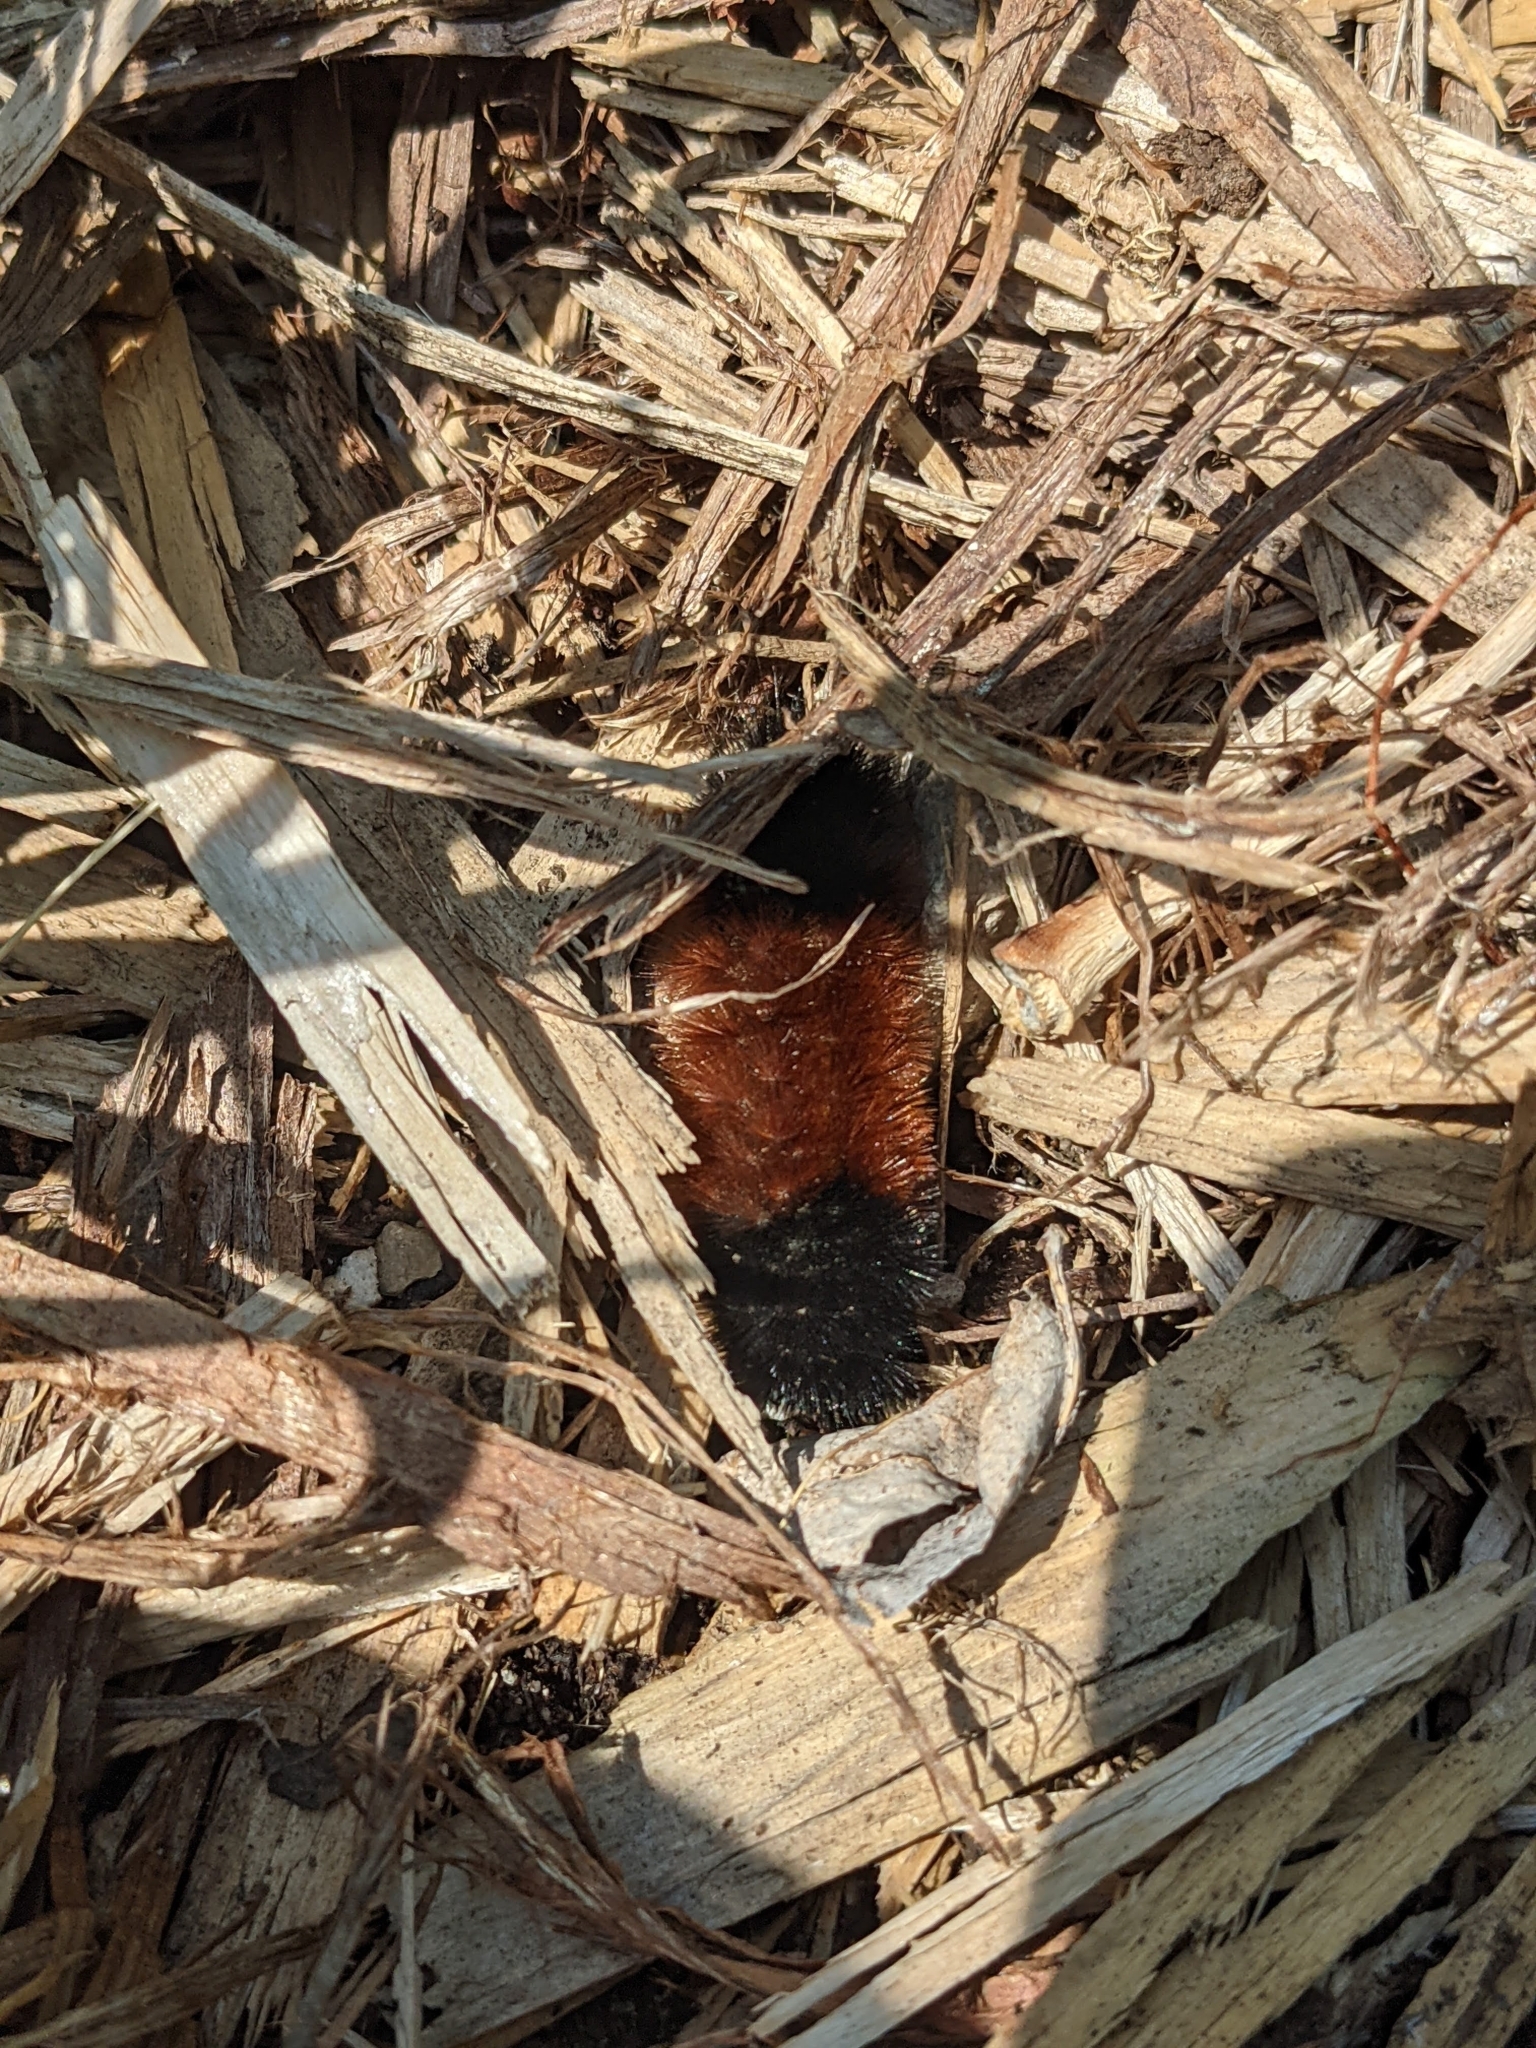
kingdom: Animalia
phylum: Arthropoda
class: Insecta
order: Lepidoptera
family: Erebidae
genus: Pyrrharctia
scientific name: Pyrrharctia isabella
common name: Isabella tiger moth
